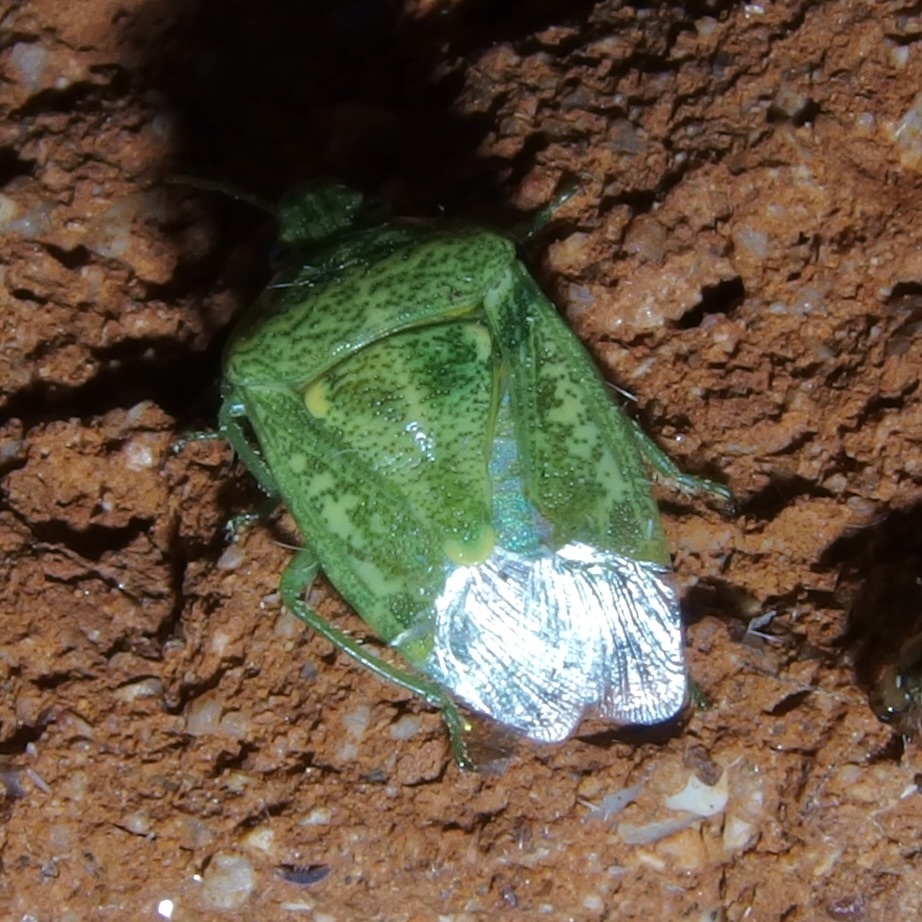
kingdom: Animalia
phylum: Arthropoda
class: Insecta
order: Hemiptera
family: Pentatomidae
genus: Banasa
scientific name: Banasa euchlora
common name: Cedar berry bug
